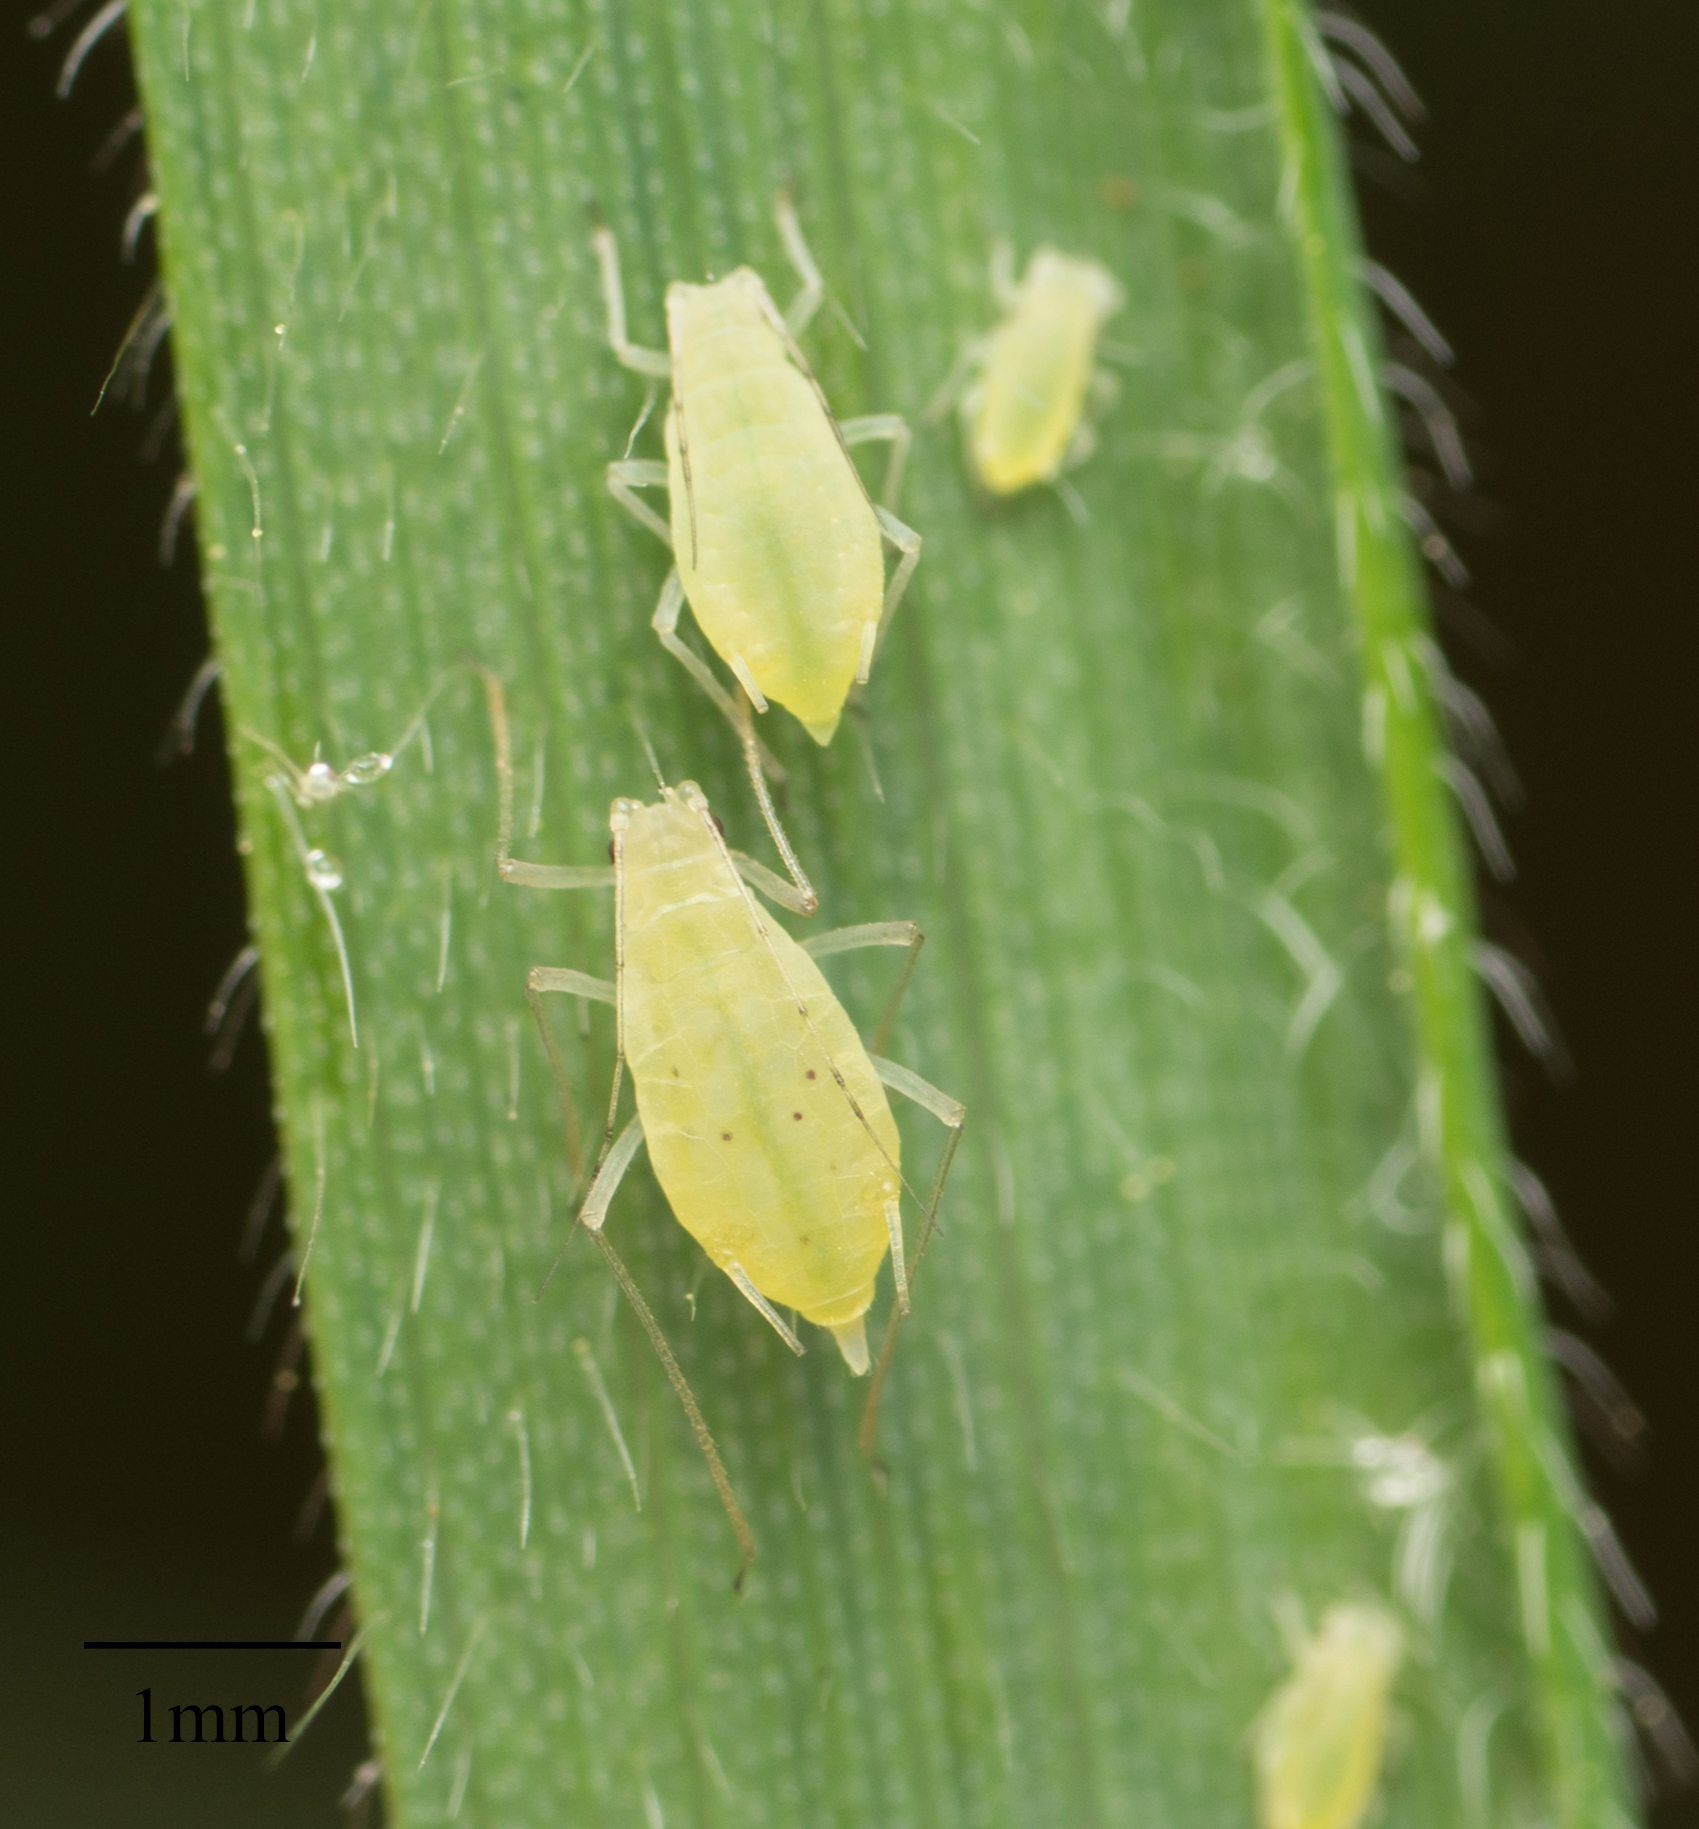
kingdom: Animalia
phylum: Arthropoda
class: Insecta
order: Hemiptera
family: Aphididae
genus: Metopolophium
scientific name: Metopolophium dirhodum
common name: Rose-grass aphid
